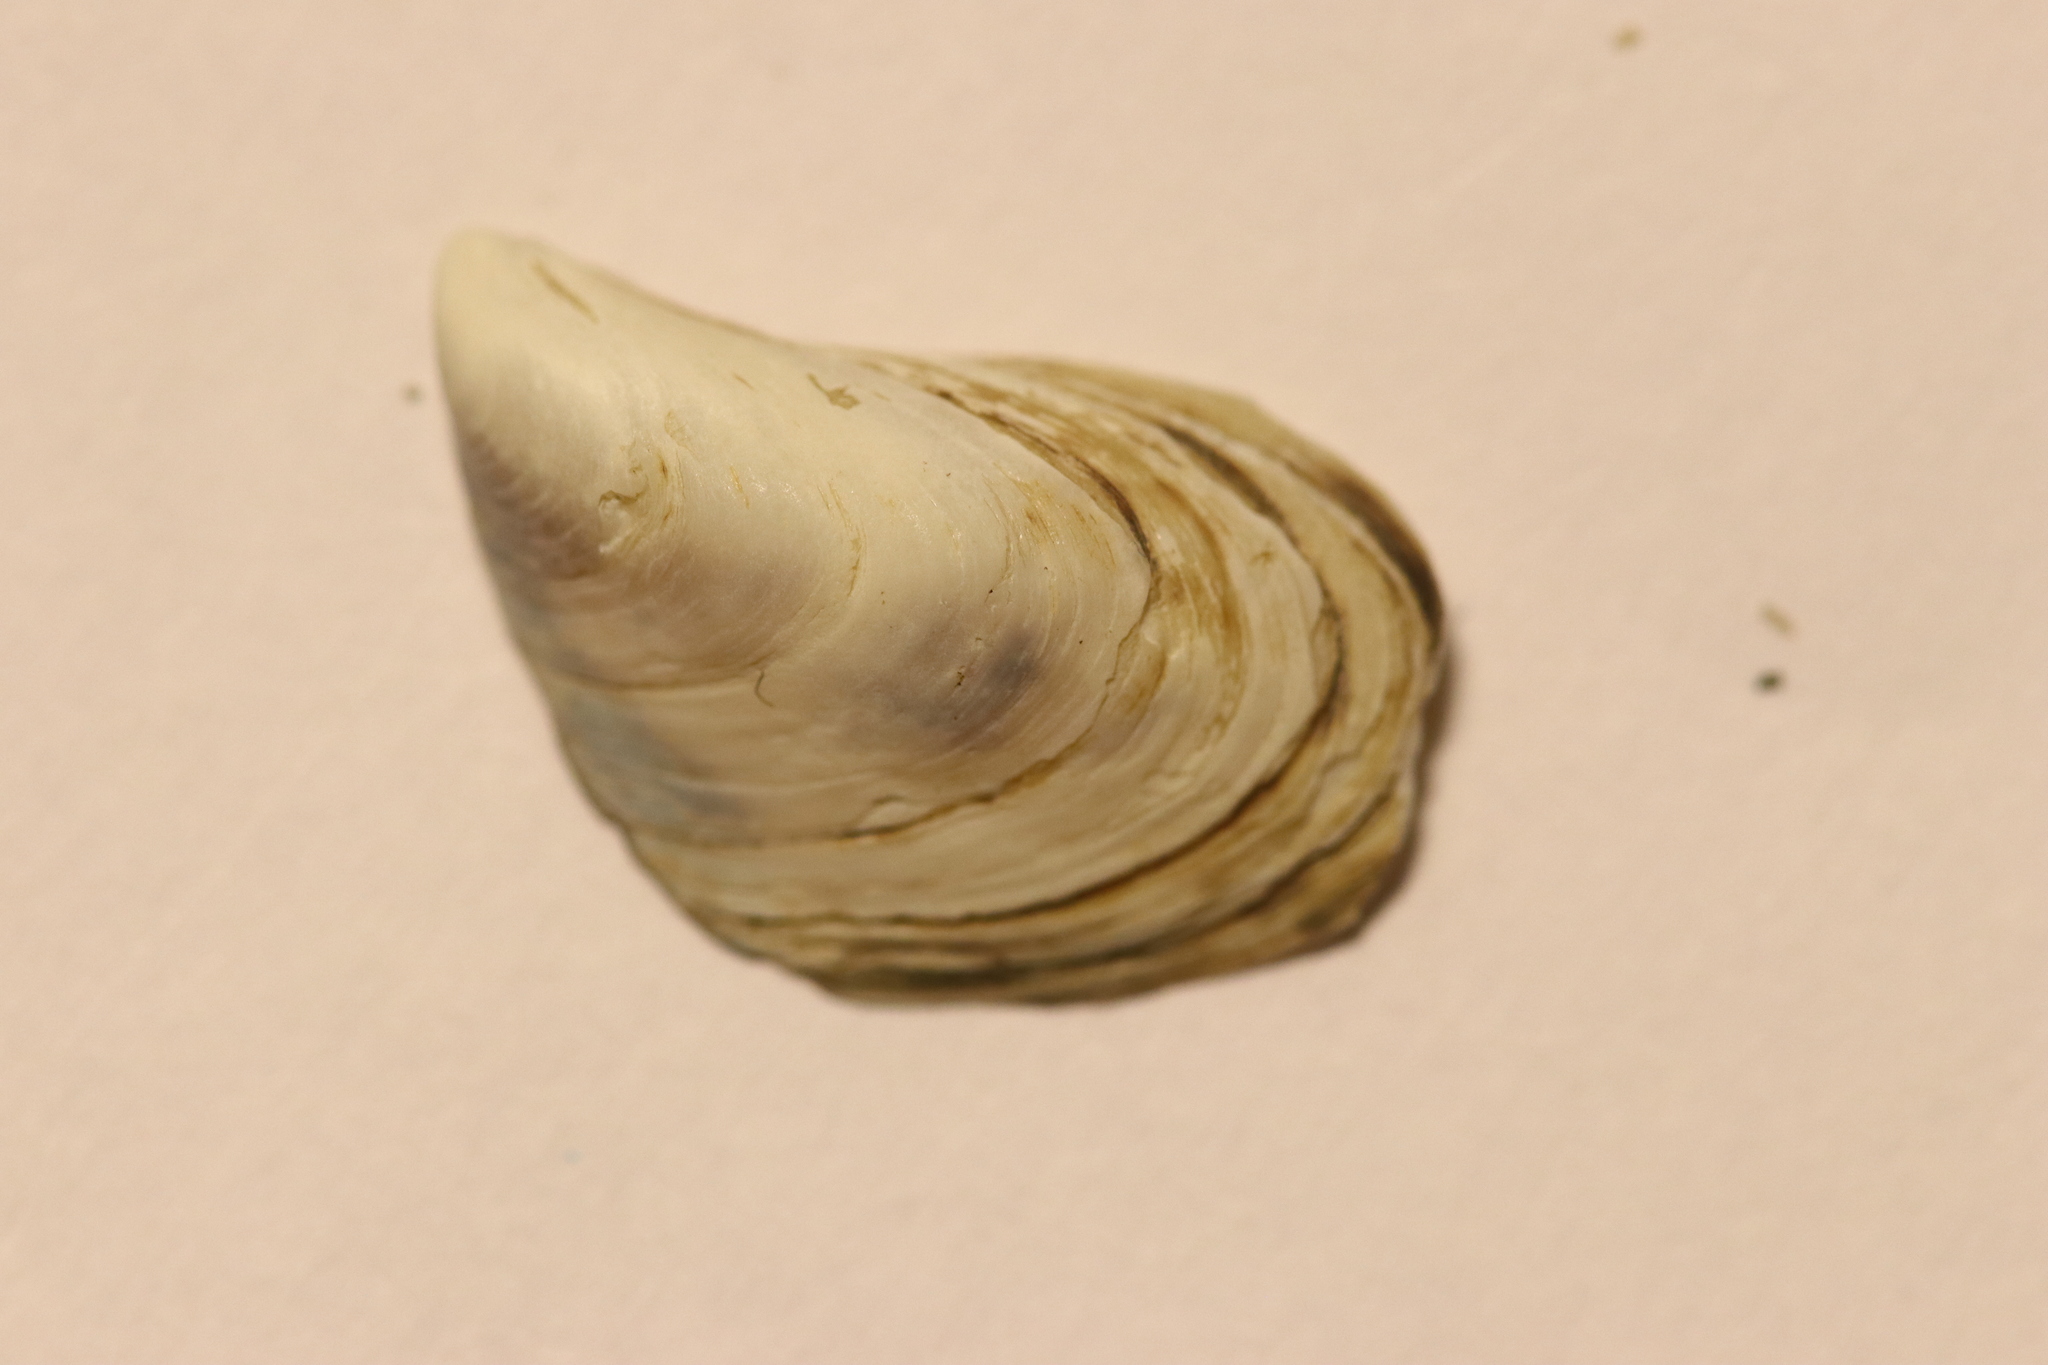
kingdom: Animalia
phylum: Mollusca
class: Bivalvia
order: Myida
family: Dreissenidae
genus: Dreissena
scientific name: Dreissena bugensis
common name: Quagga mussel
